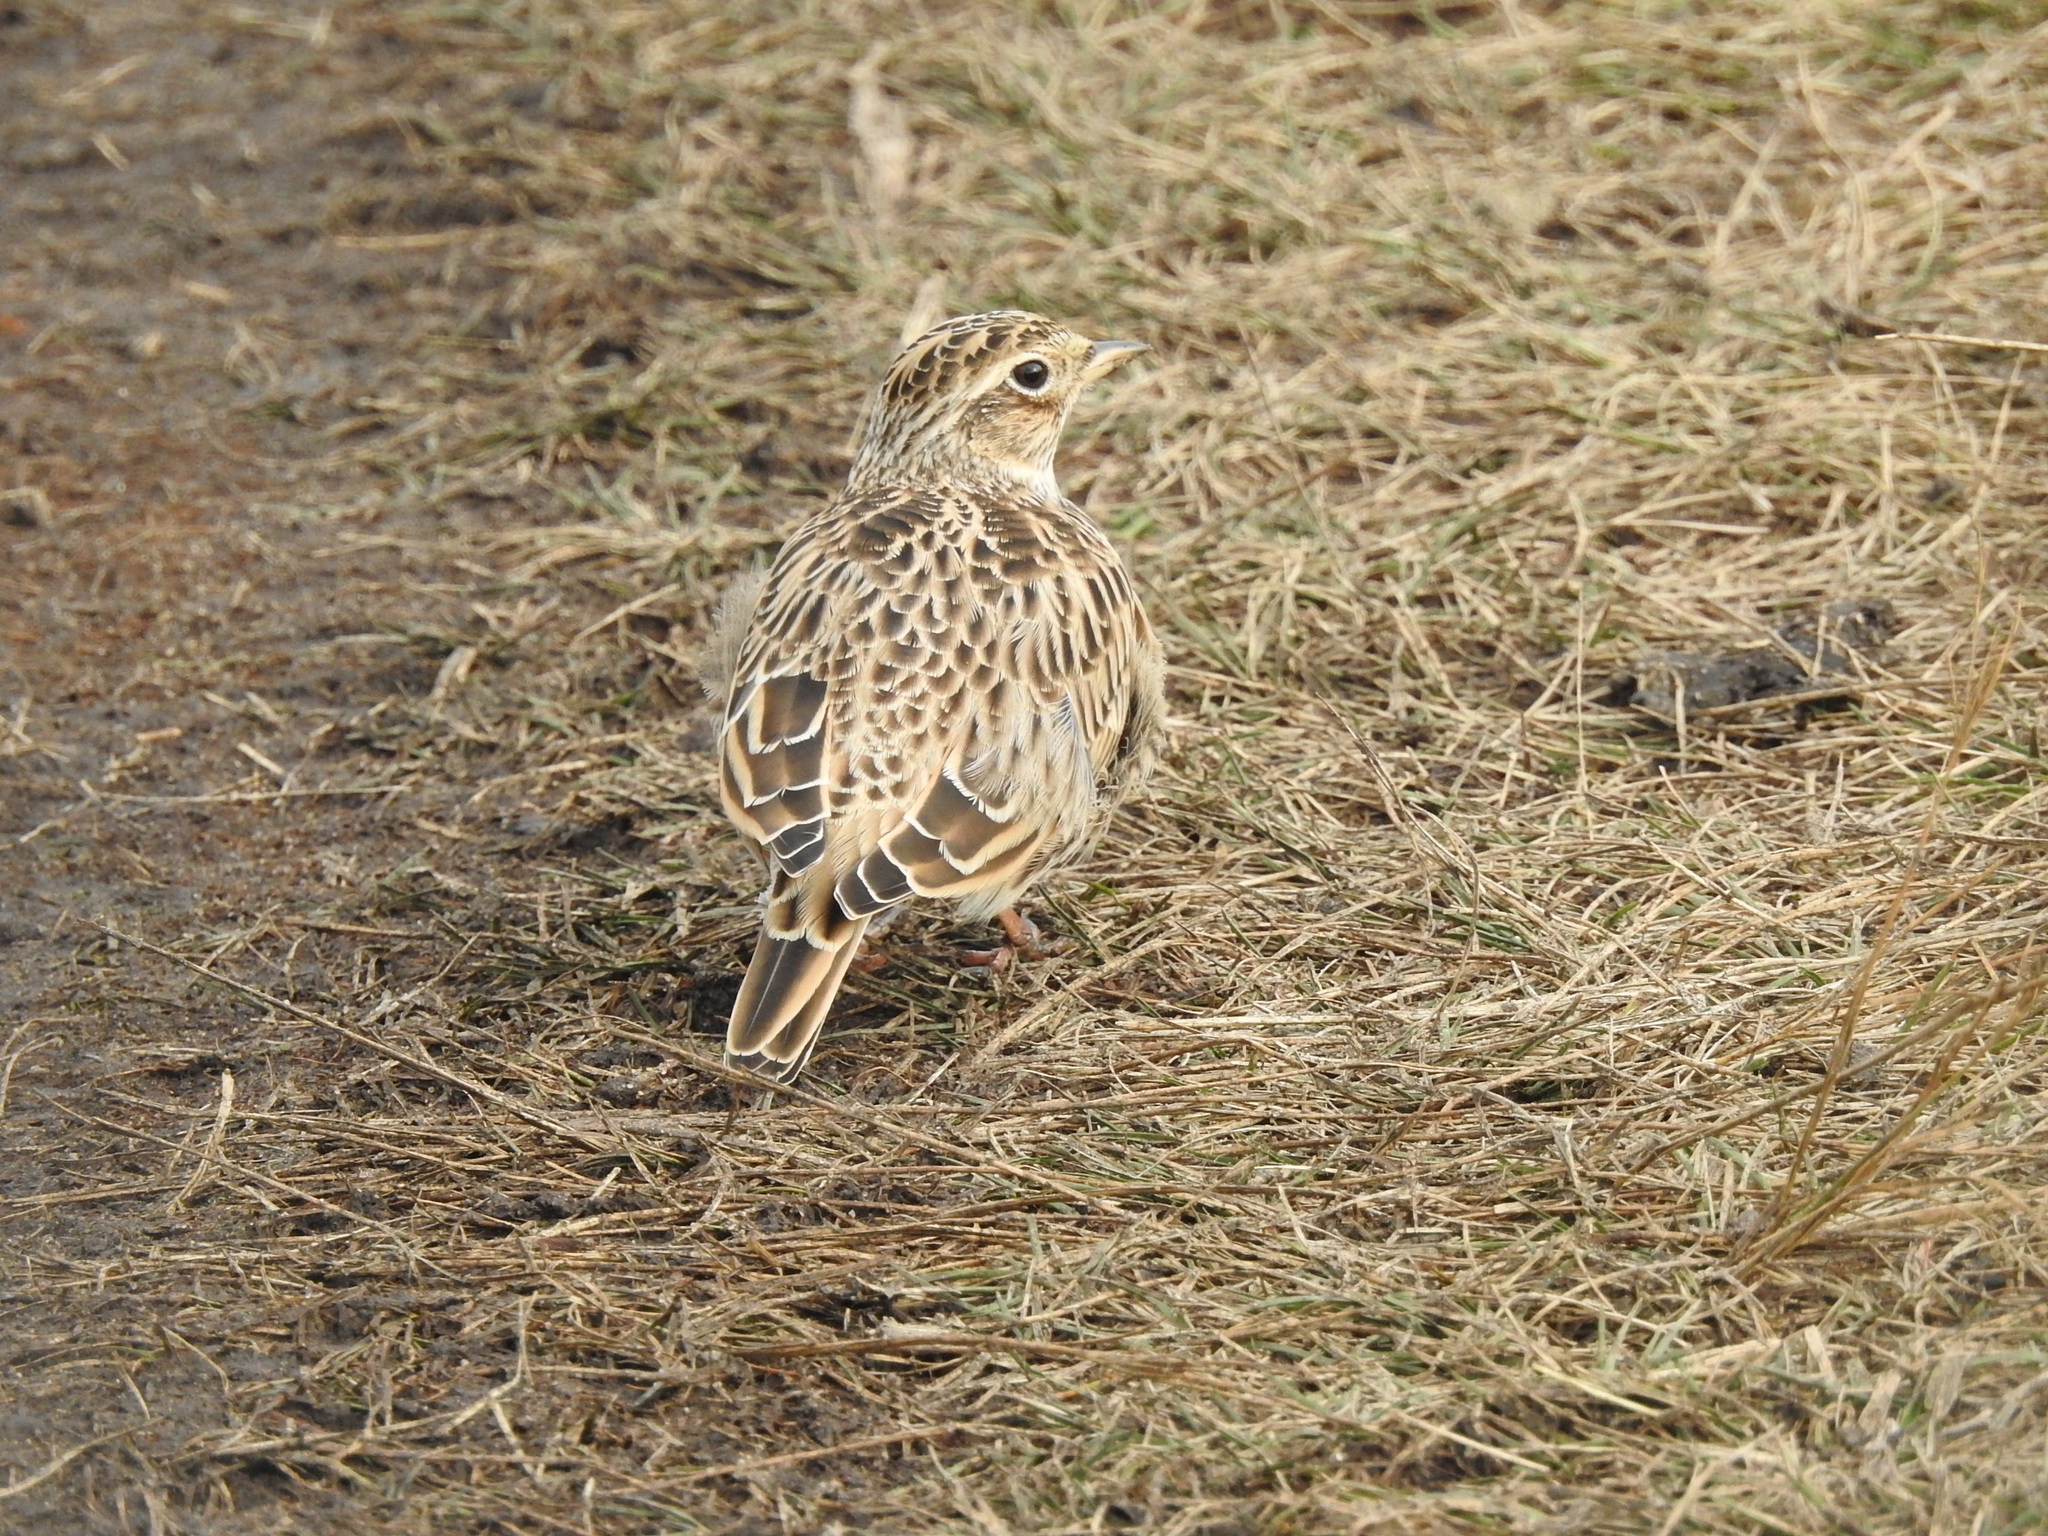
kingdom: Animalia
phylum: Chordata
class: Aves
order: Passeriformes
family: Alaudidae
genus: Alauda
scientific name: Alauda arvensis
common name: Eurasian skylark
